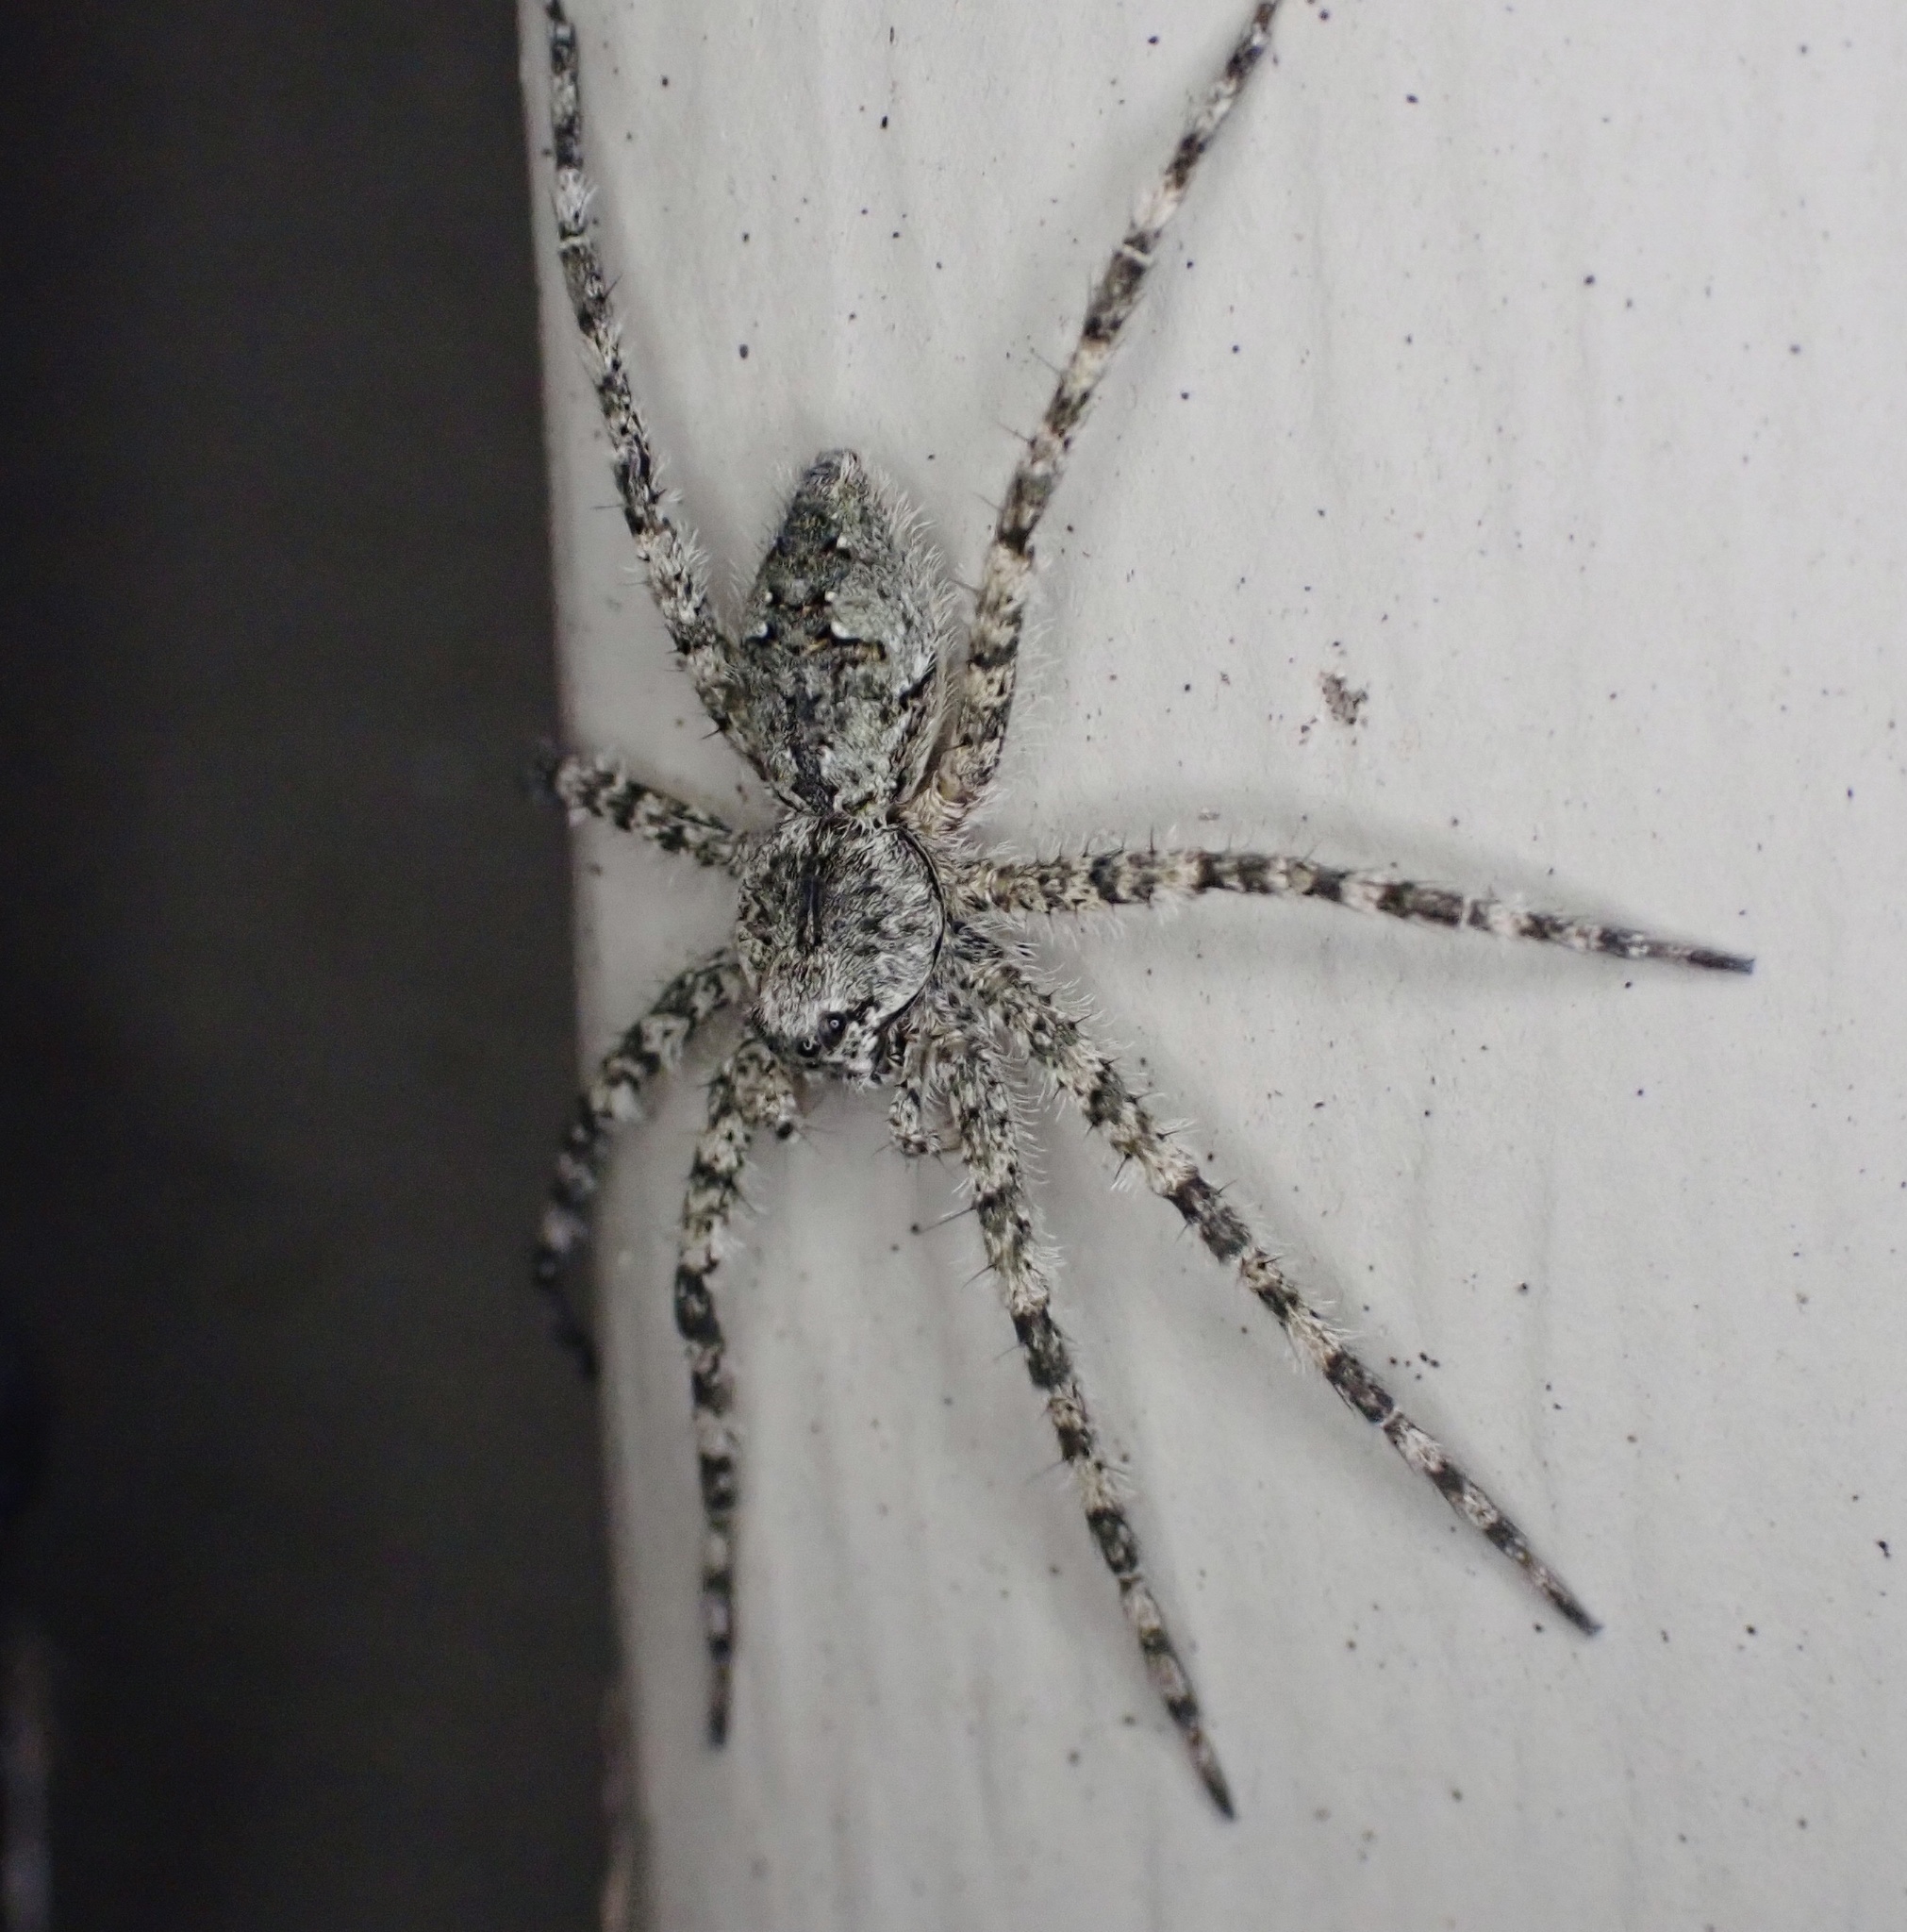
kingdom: Animalia
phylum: Arthropoda
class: Arachnida
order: Araneae
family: Pisauridae
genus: Dolomedes
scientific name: Dolomedes albineus
